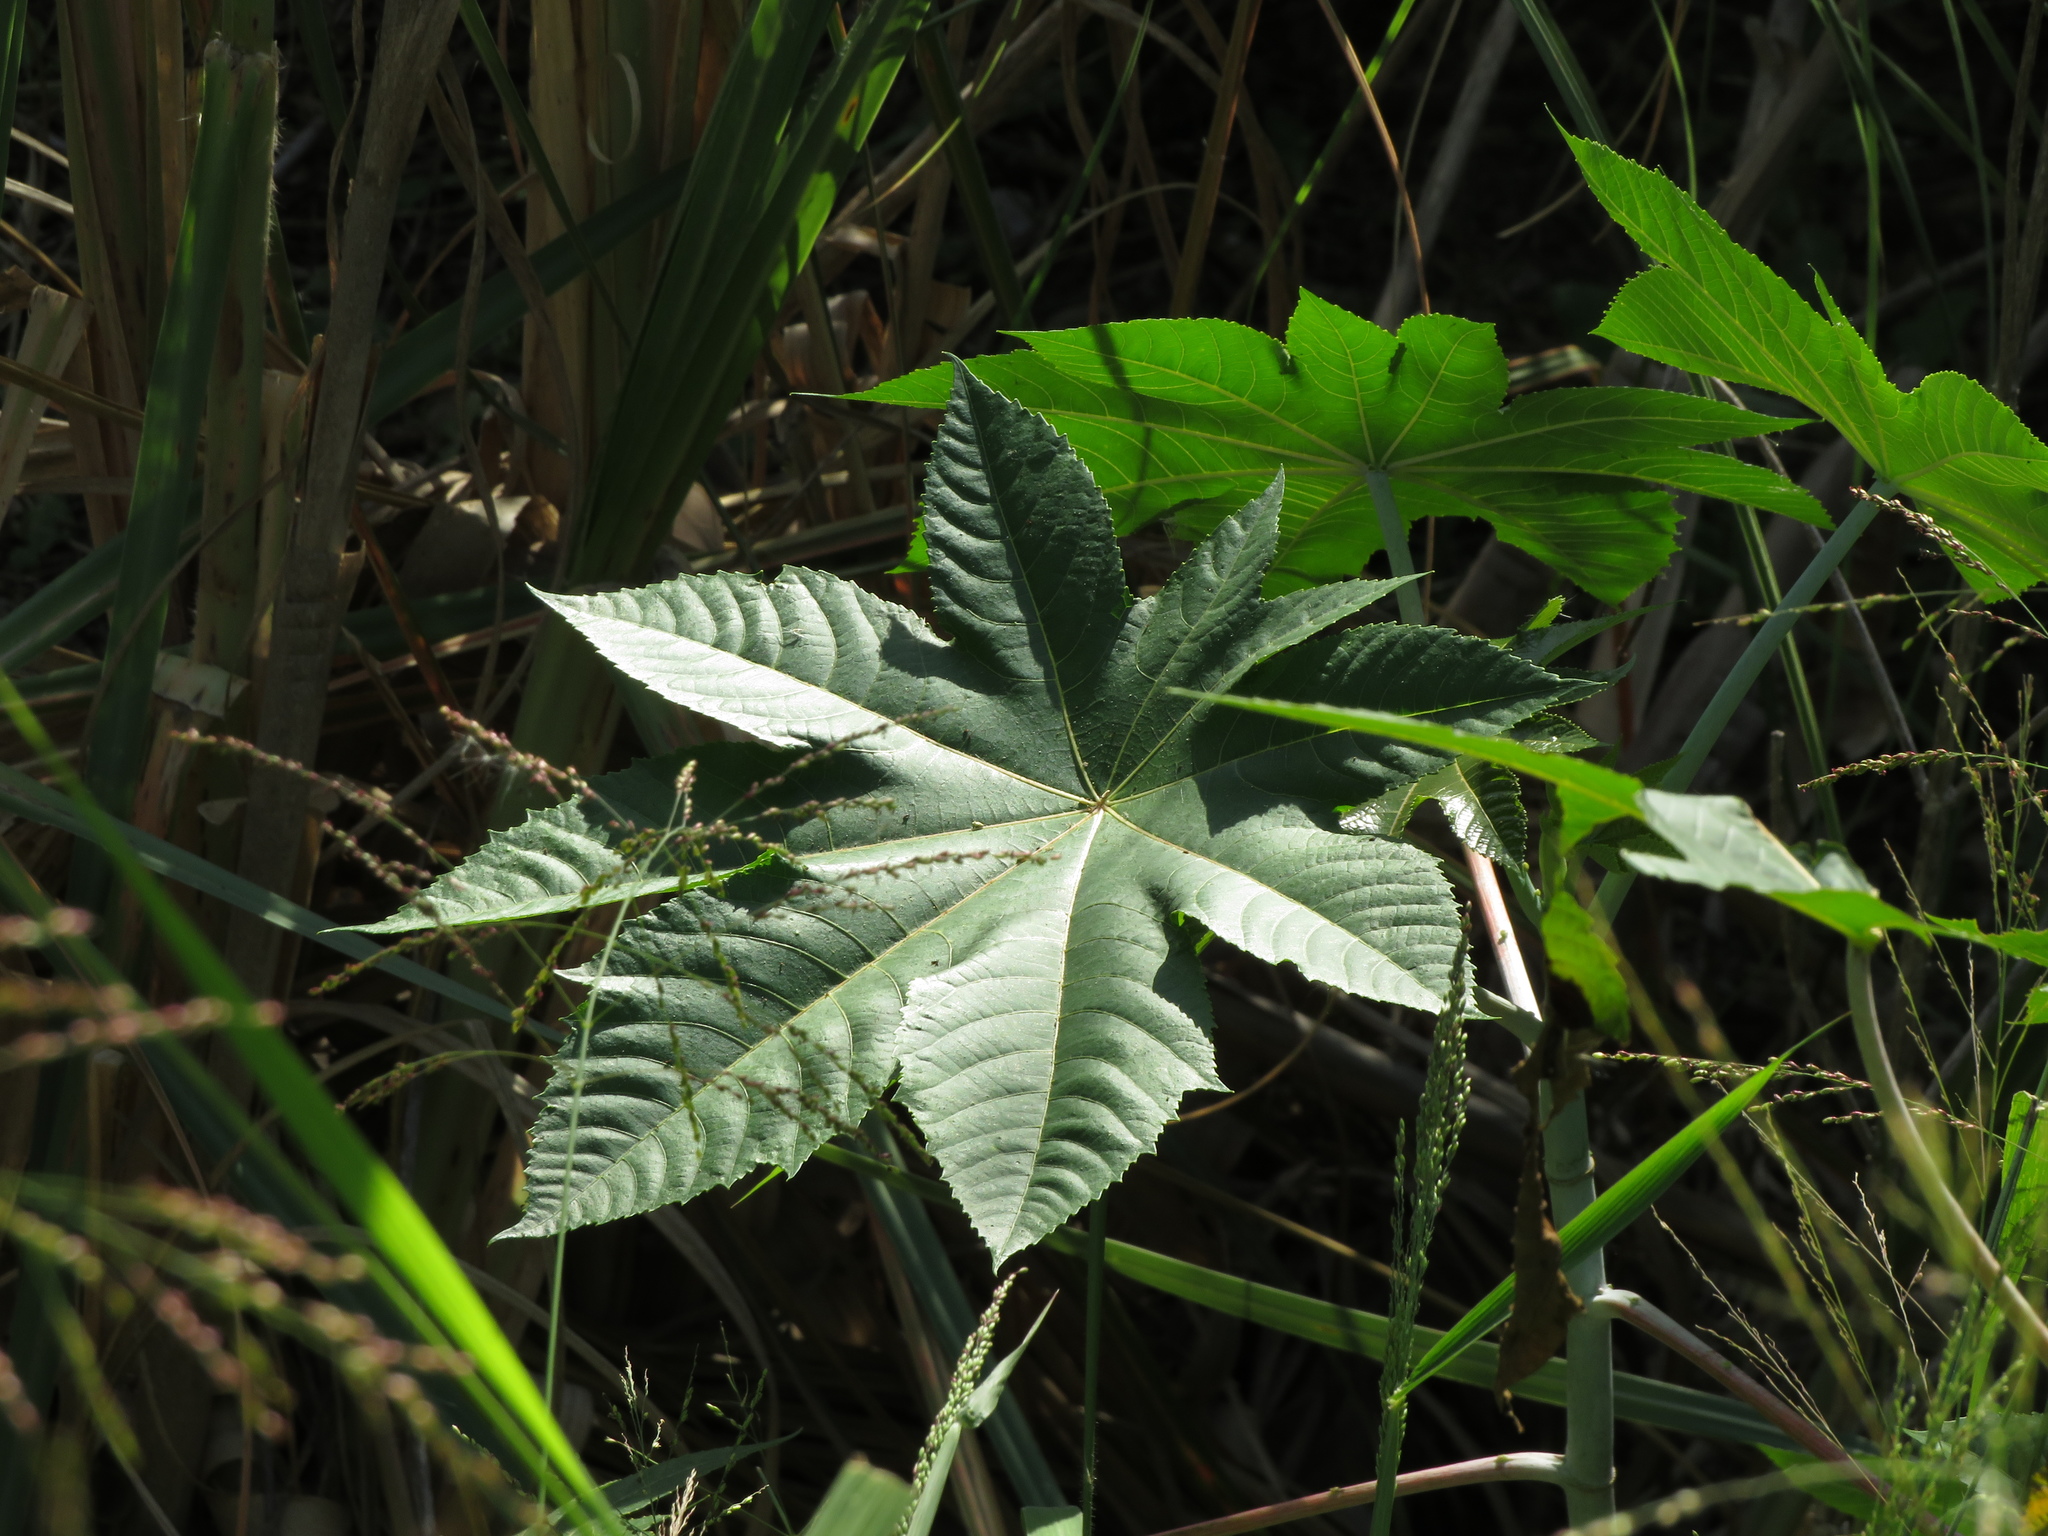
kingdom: Plantae
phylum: Tracheophyta
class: Magnoliopsida
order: Malpighiales
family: Euphorbiaceae
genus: Ricinus
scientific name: Ricinus communis
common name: Castor-oil-plant
